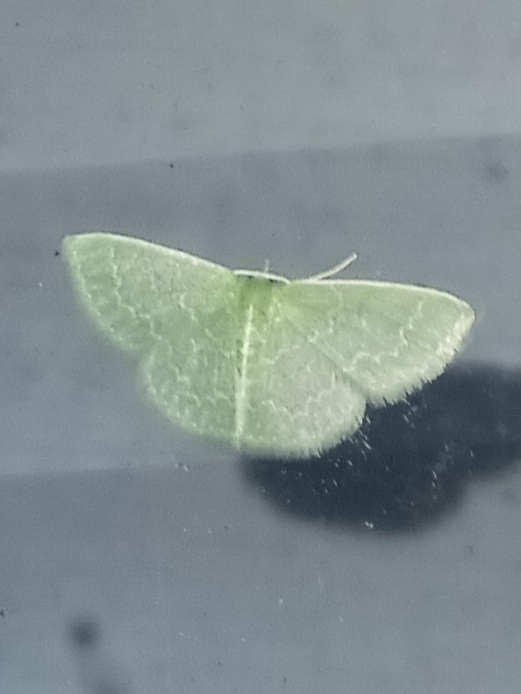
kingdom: Animalia
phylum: Arthropoda
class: Insecta
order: Lepidoptera
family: Geometridae
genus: Synchlora
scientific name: Synchlora frondaria
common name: Southern emerald
